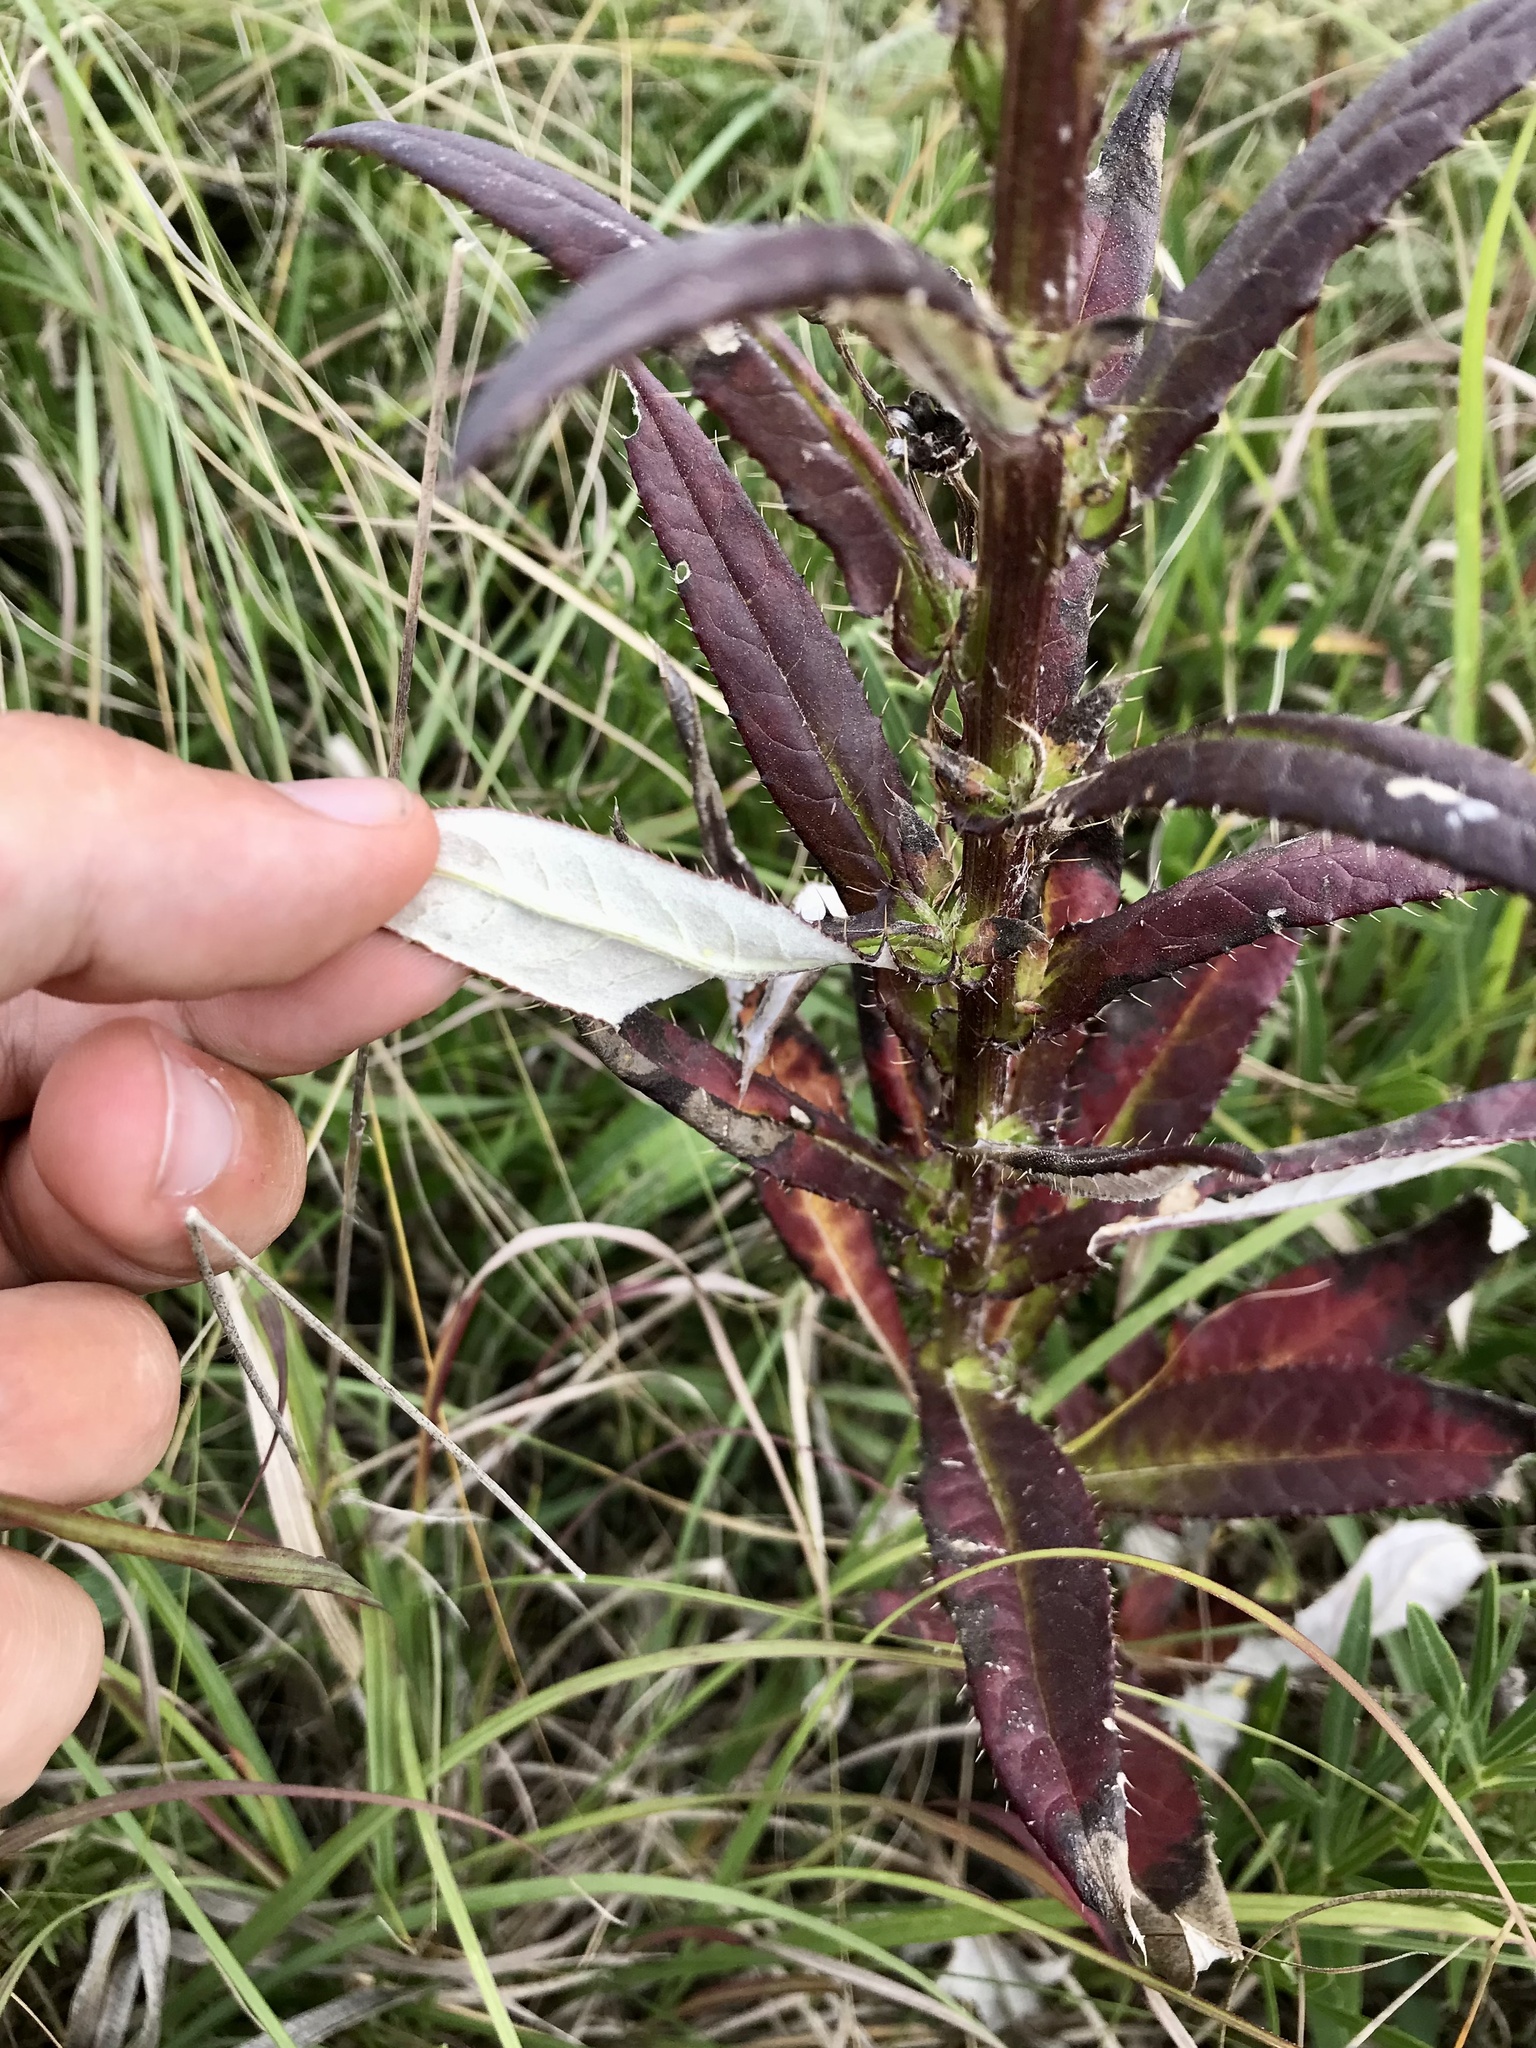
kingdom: Plantae
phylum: Tracheophyta
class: Magnoliopsida
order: Asterales
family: Asteraceae
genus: Cirsium
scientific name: Cirsium altissimum
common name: Roadside thistle
